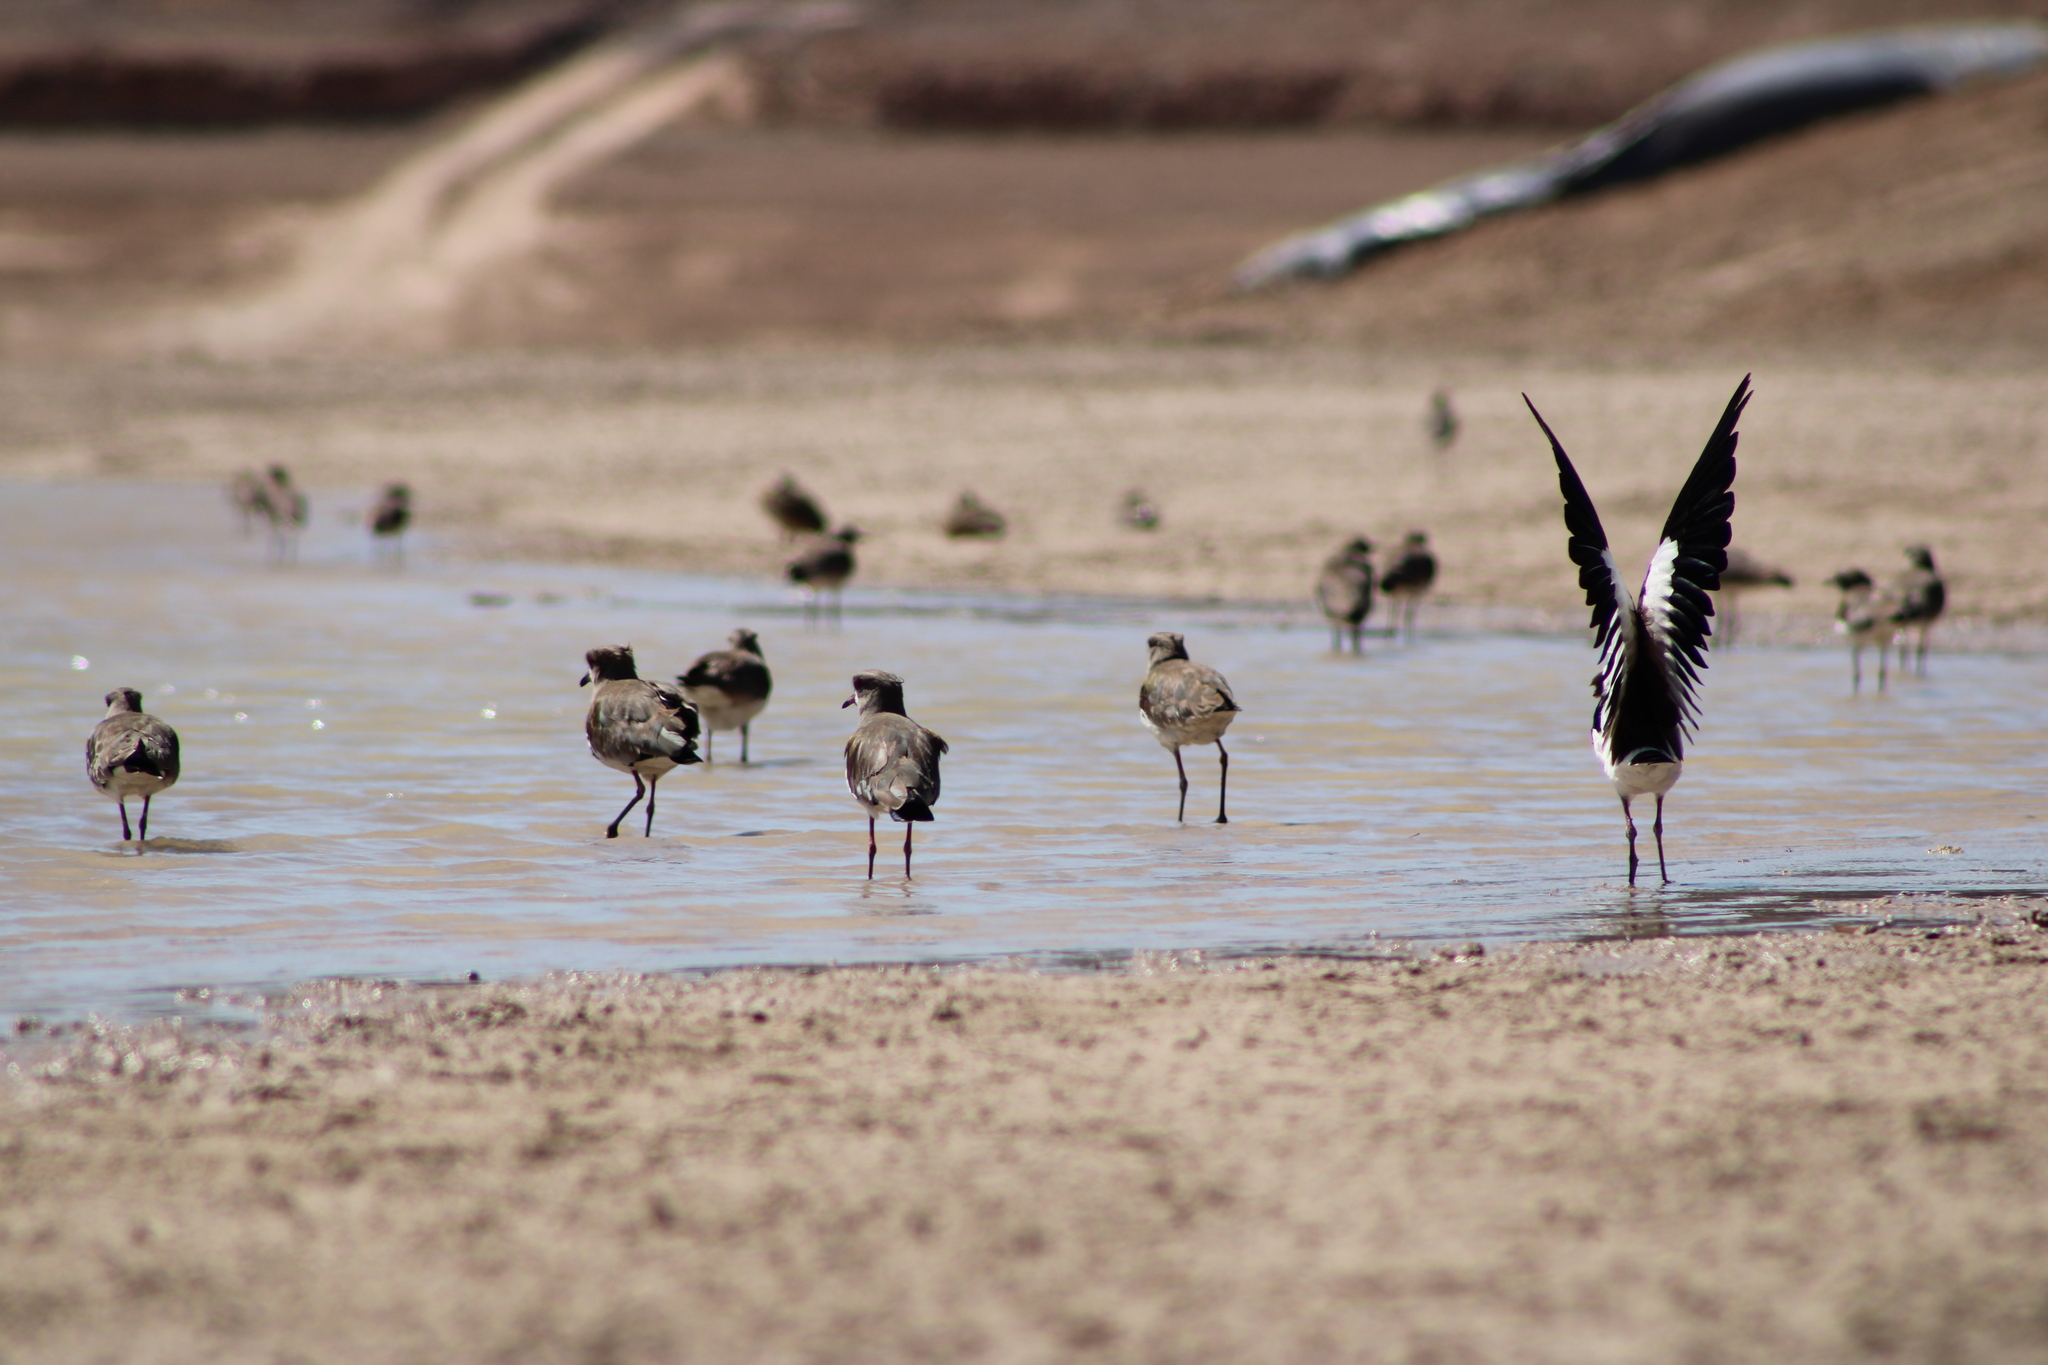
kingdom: Animalia
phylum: Chordata
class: Aves
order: Charadriiformes
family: Charadriidae
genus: Vanellus
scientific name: Vanellus chilensis
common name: Southern lapwing
